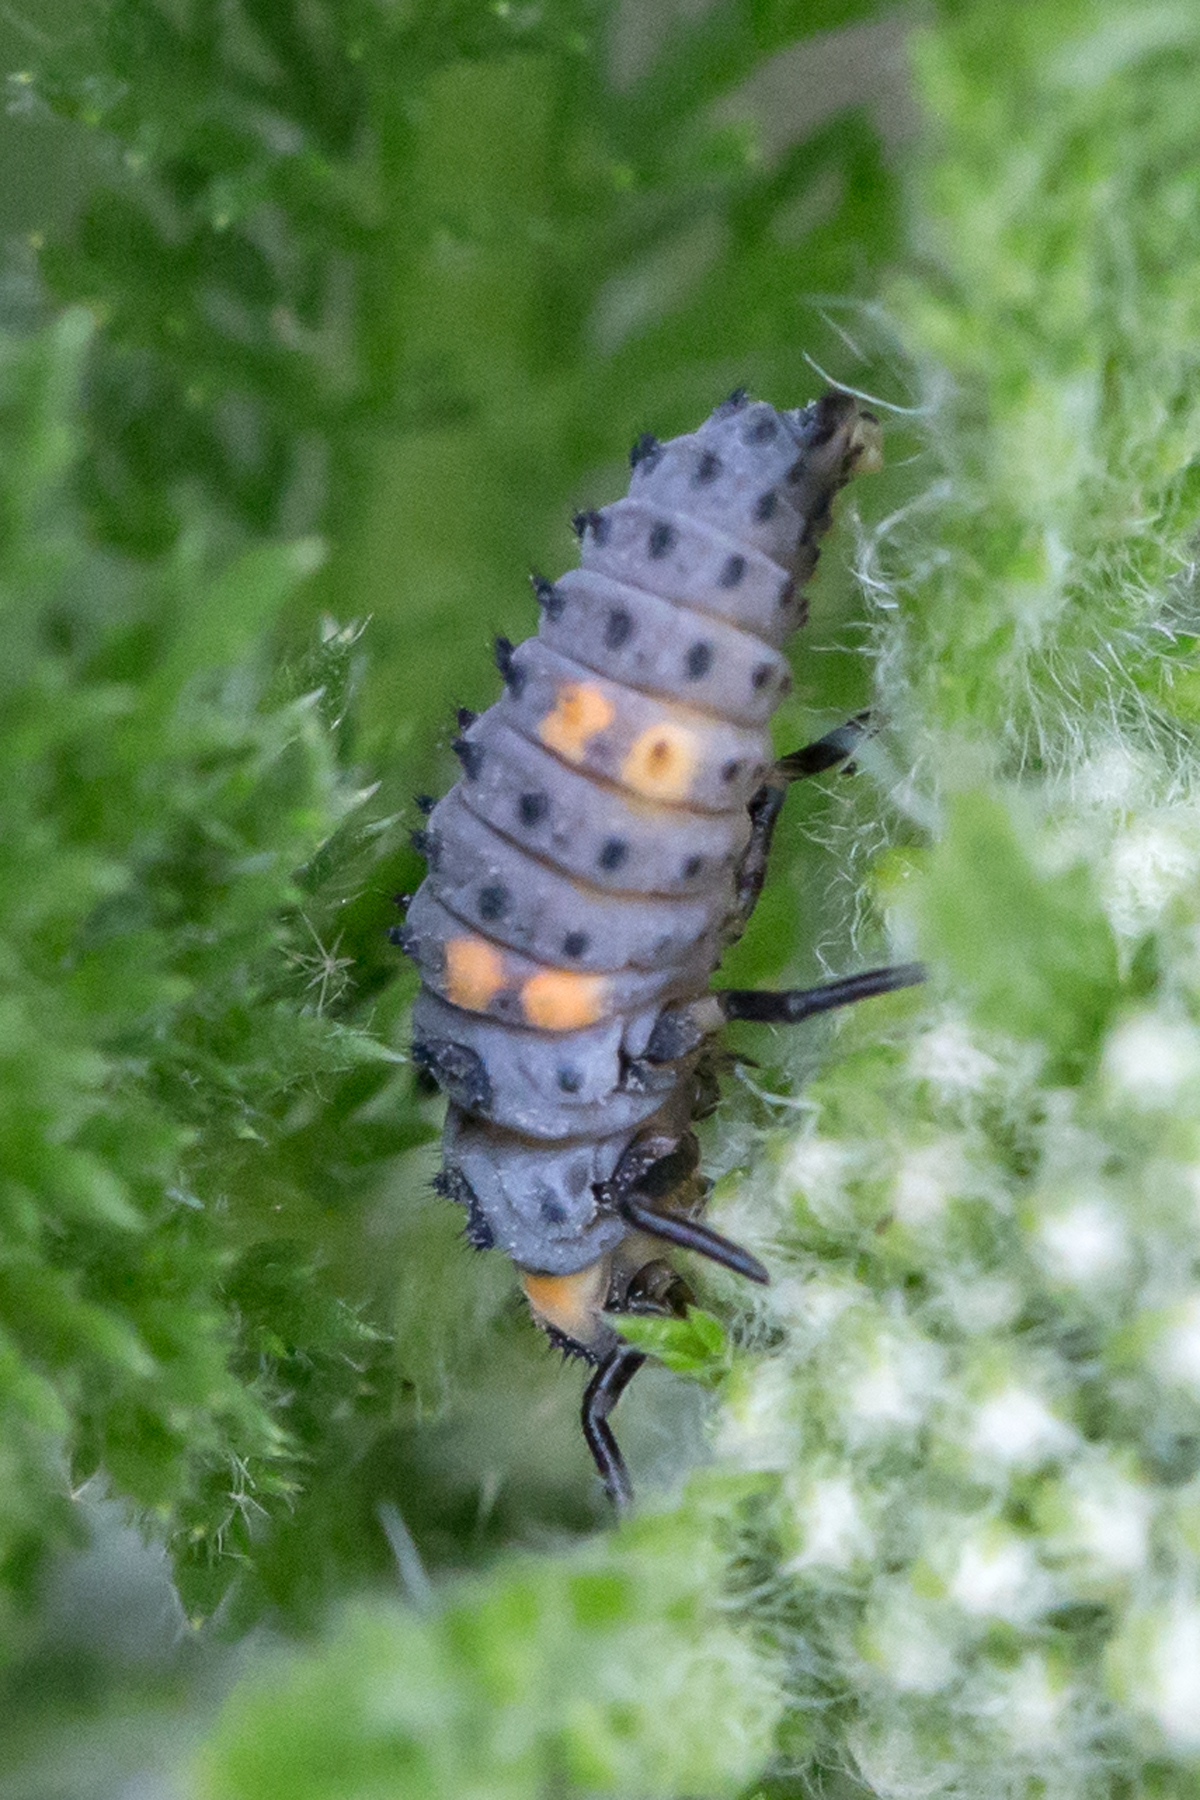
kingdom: Animalia
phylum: Arthropoda
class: Insecta
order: Coleoptera
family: Coccinellidae
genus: Coccinella
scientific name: Coccinella septempunctata
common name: Sevenspotted lady beetle
